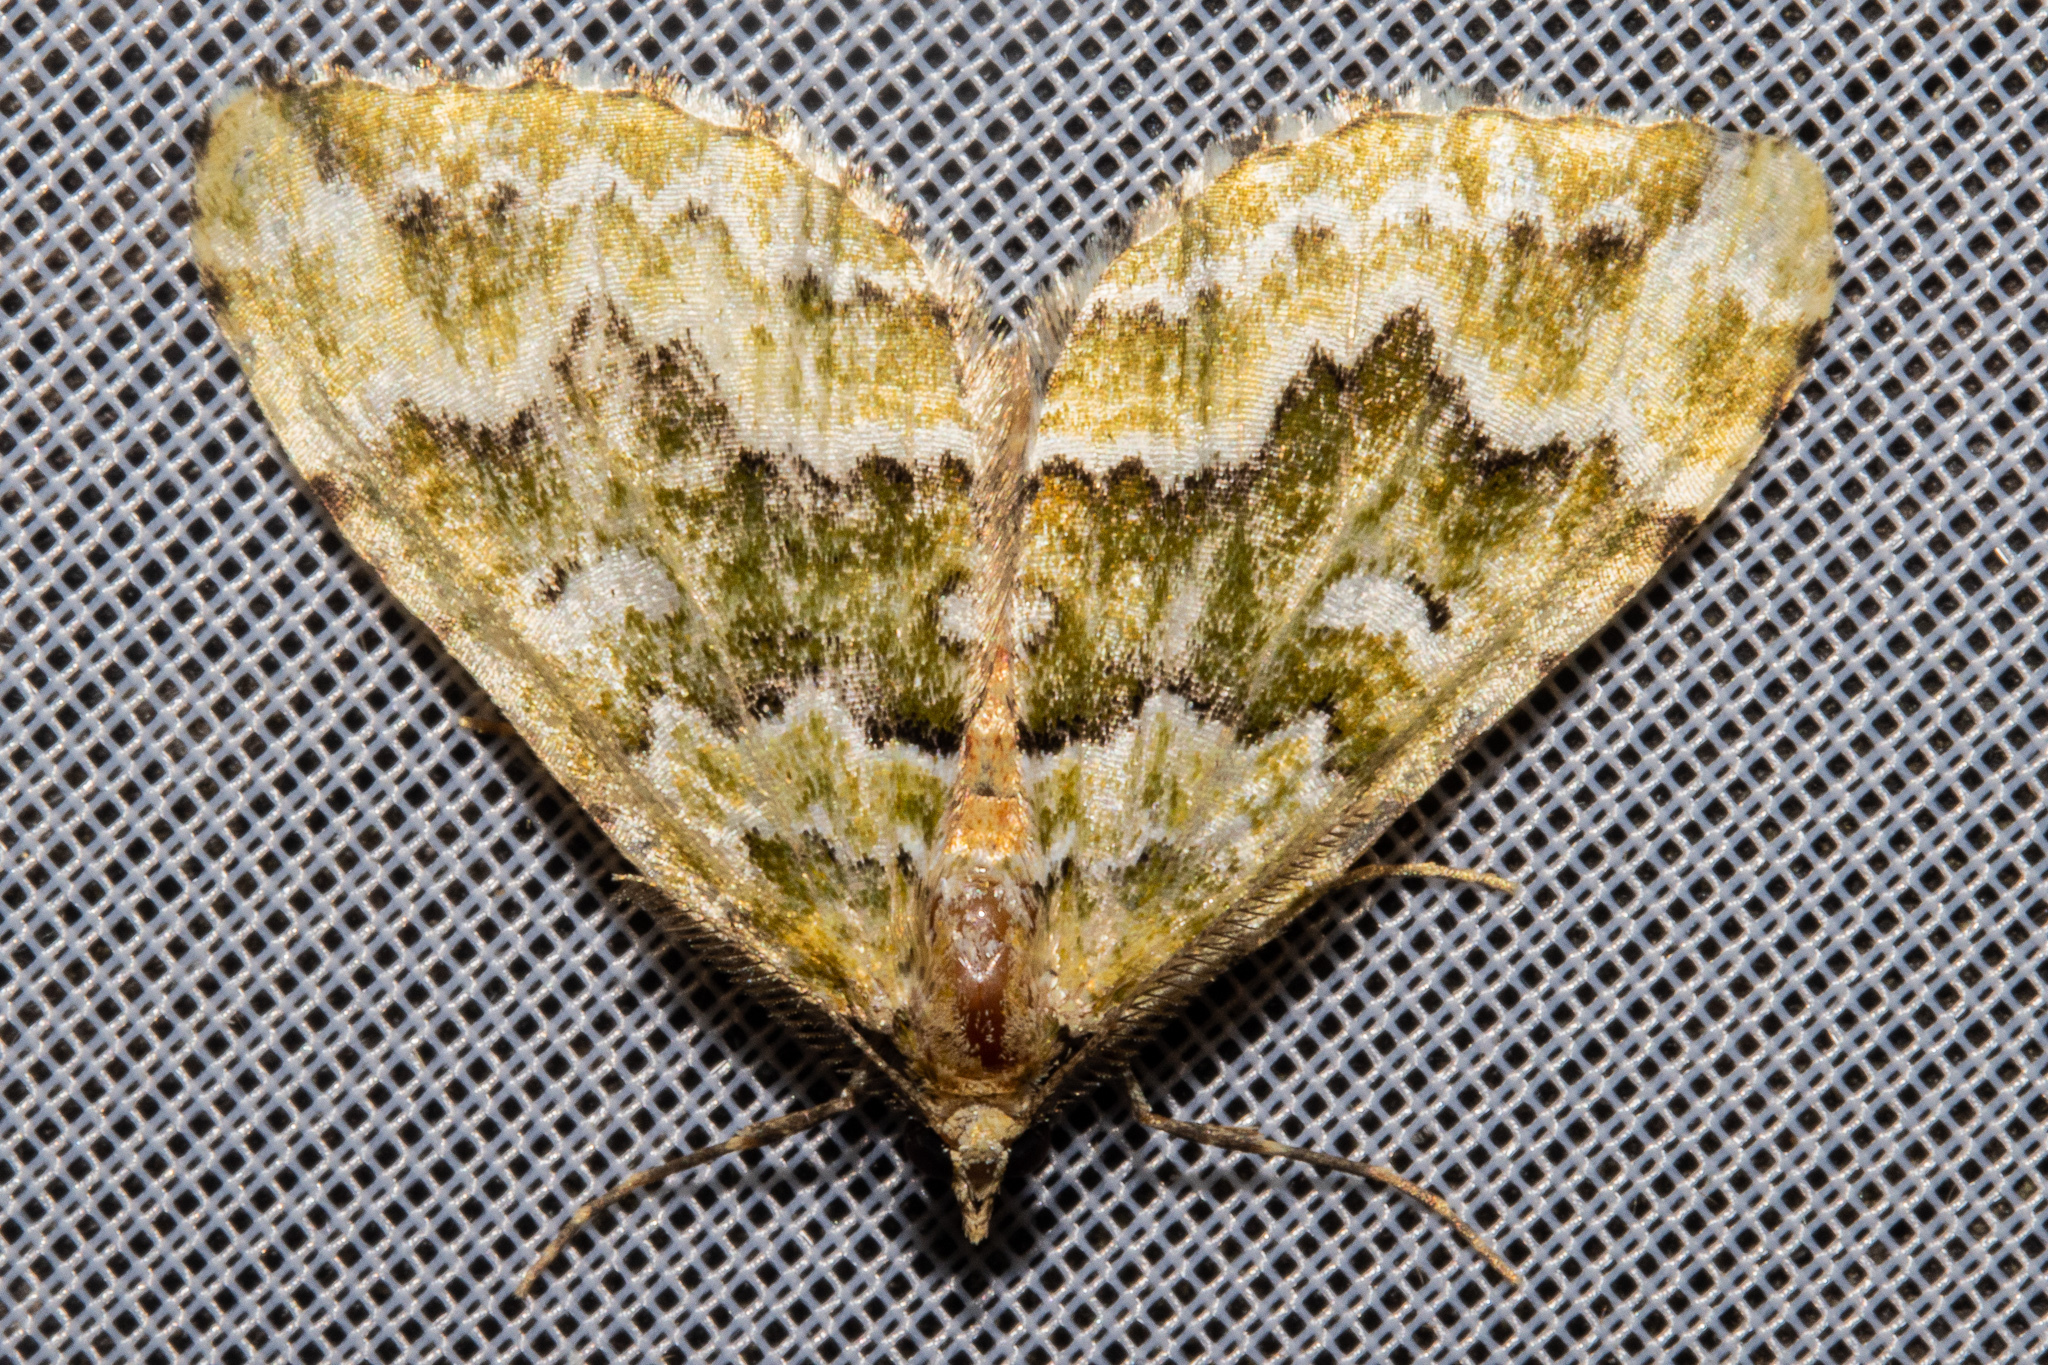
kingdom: Animalia
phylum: Arthropoda
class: Insecta
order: Lepidoptera
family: Geometridae
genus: Asaphodes
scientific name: Asaphodes beata
